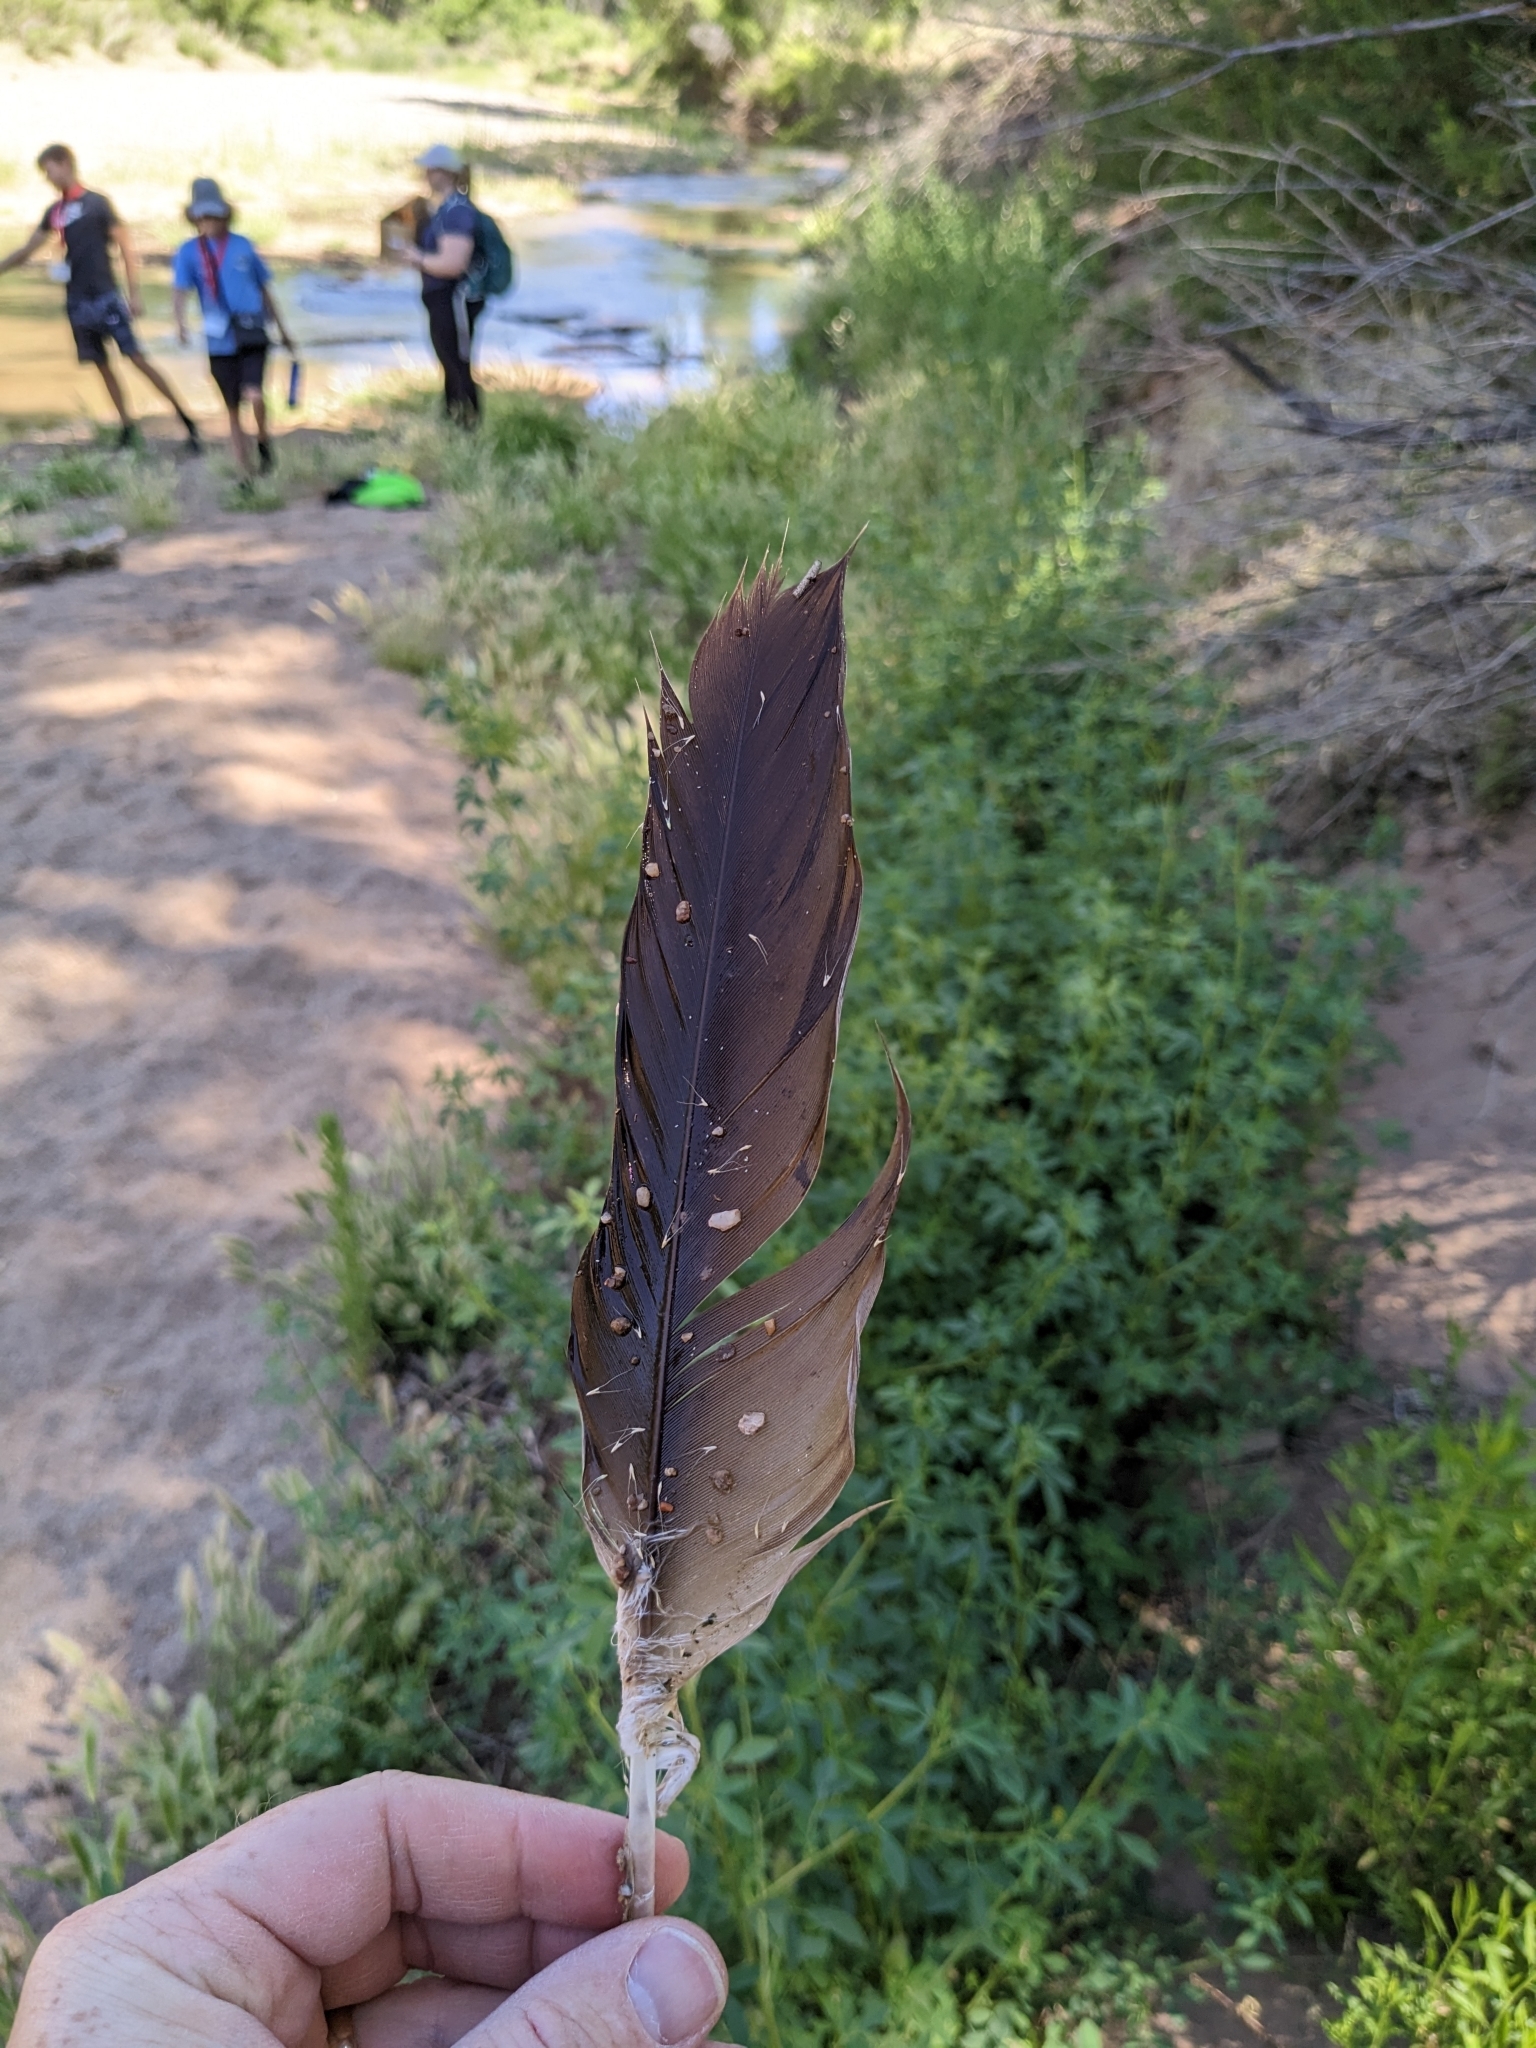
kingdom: Animalia
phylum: Chordata
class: Aves
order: Accipitriformes
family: Cathartidae
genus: Cathartes
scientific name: Cathartes aura
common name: Turkey vulture
